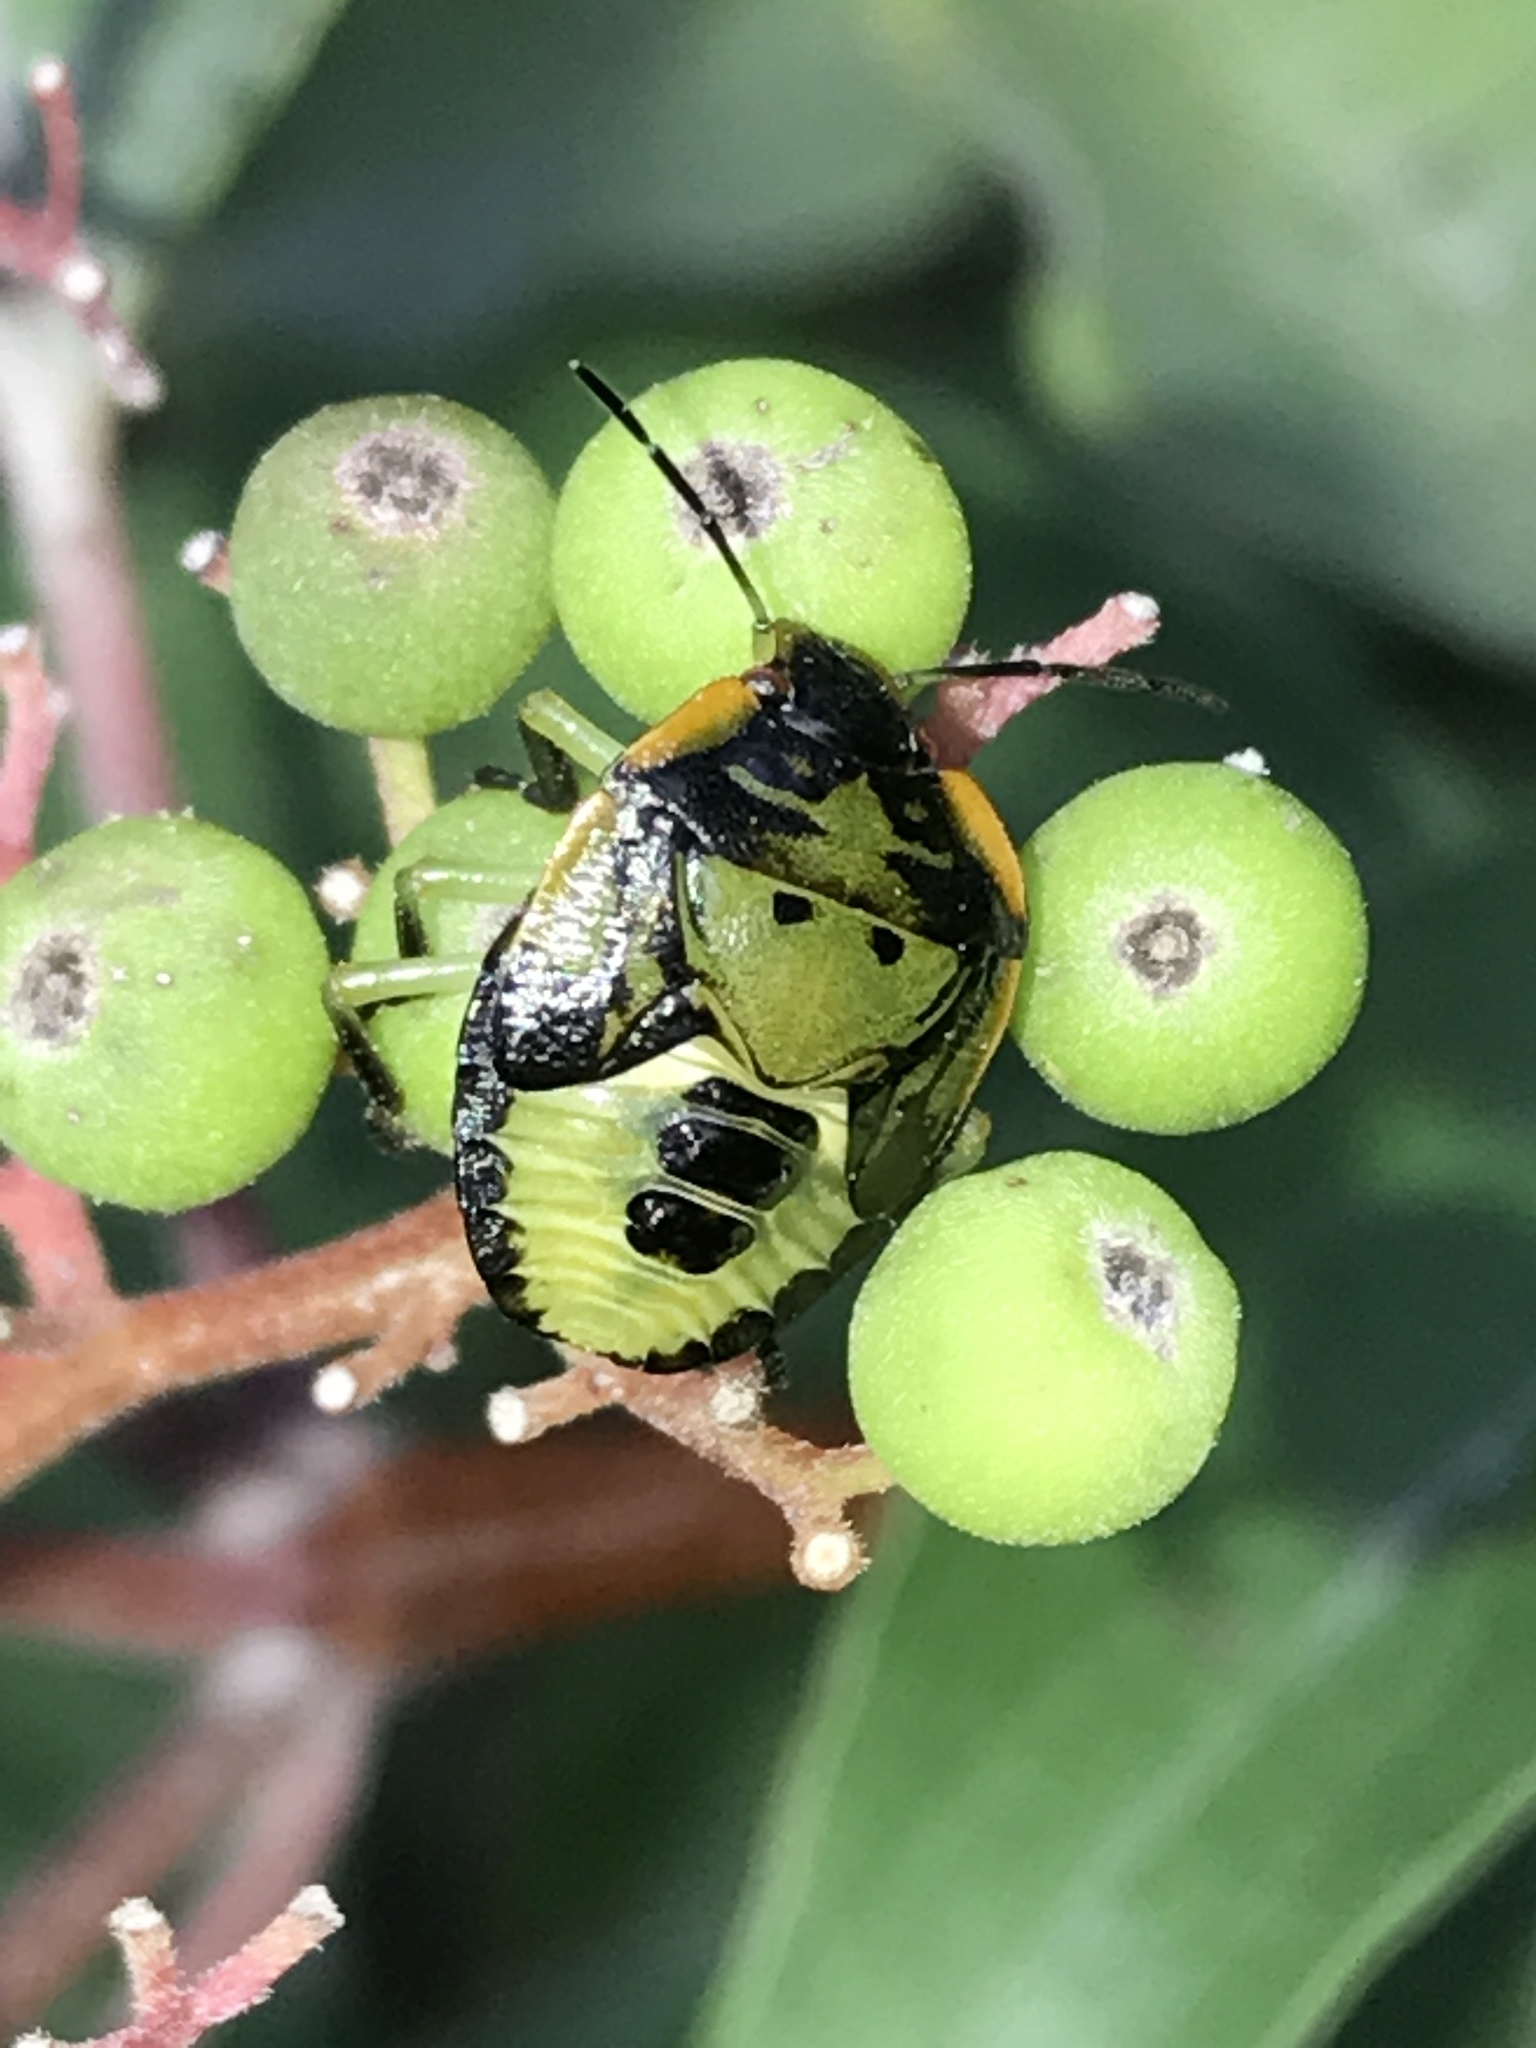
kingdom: Animalia
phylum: Arthropoda
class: Insecta
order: Hemiptera
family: Pentatomidae
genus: Chinavia
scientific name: Chinavia hilaris
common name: Green stink bug
